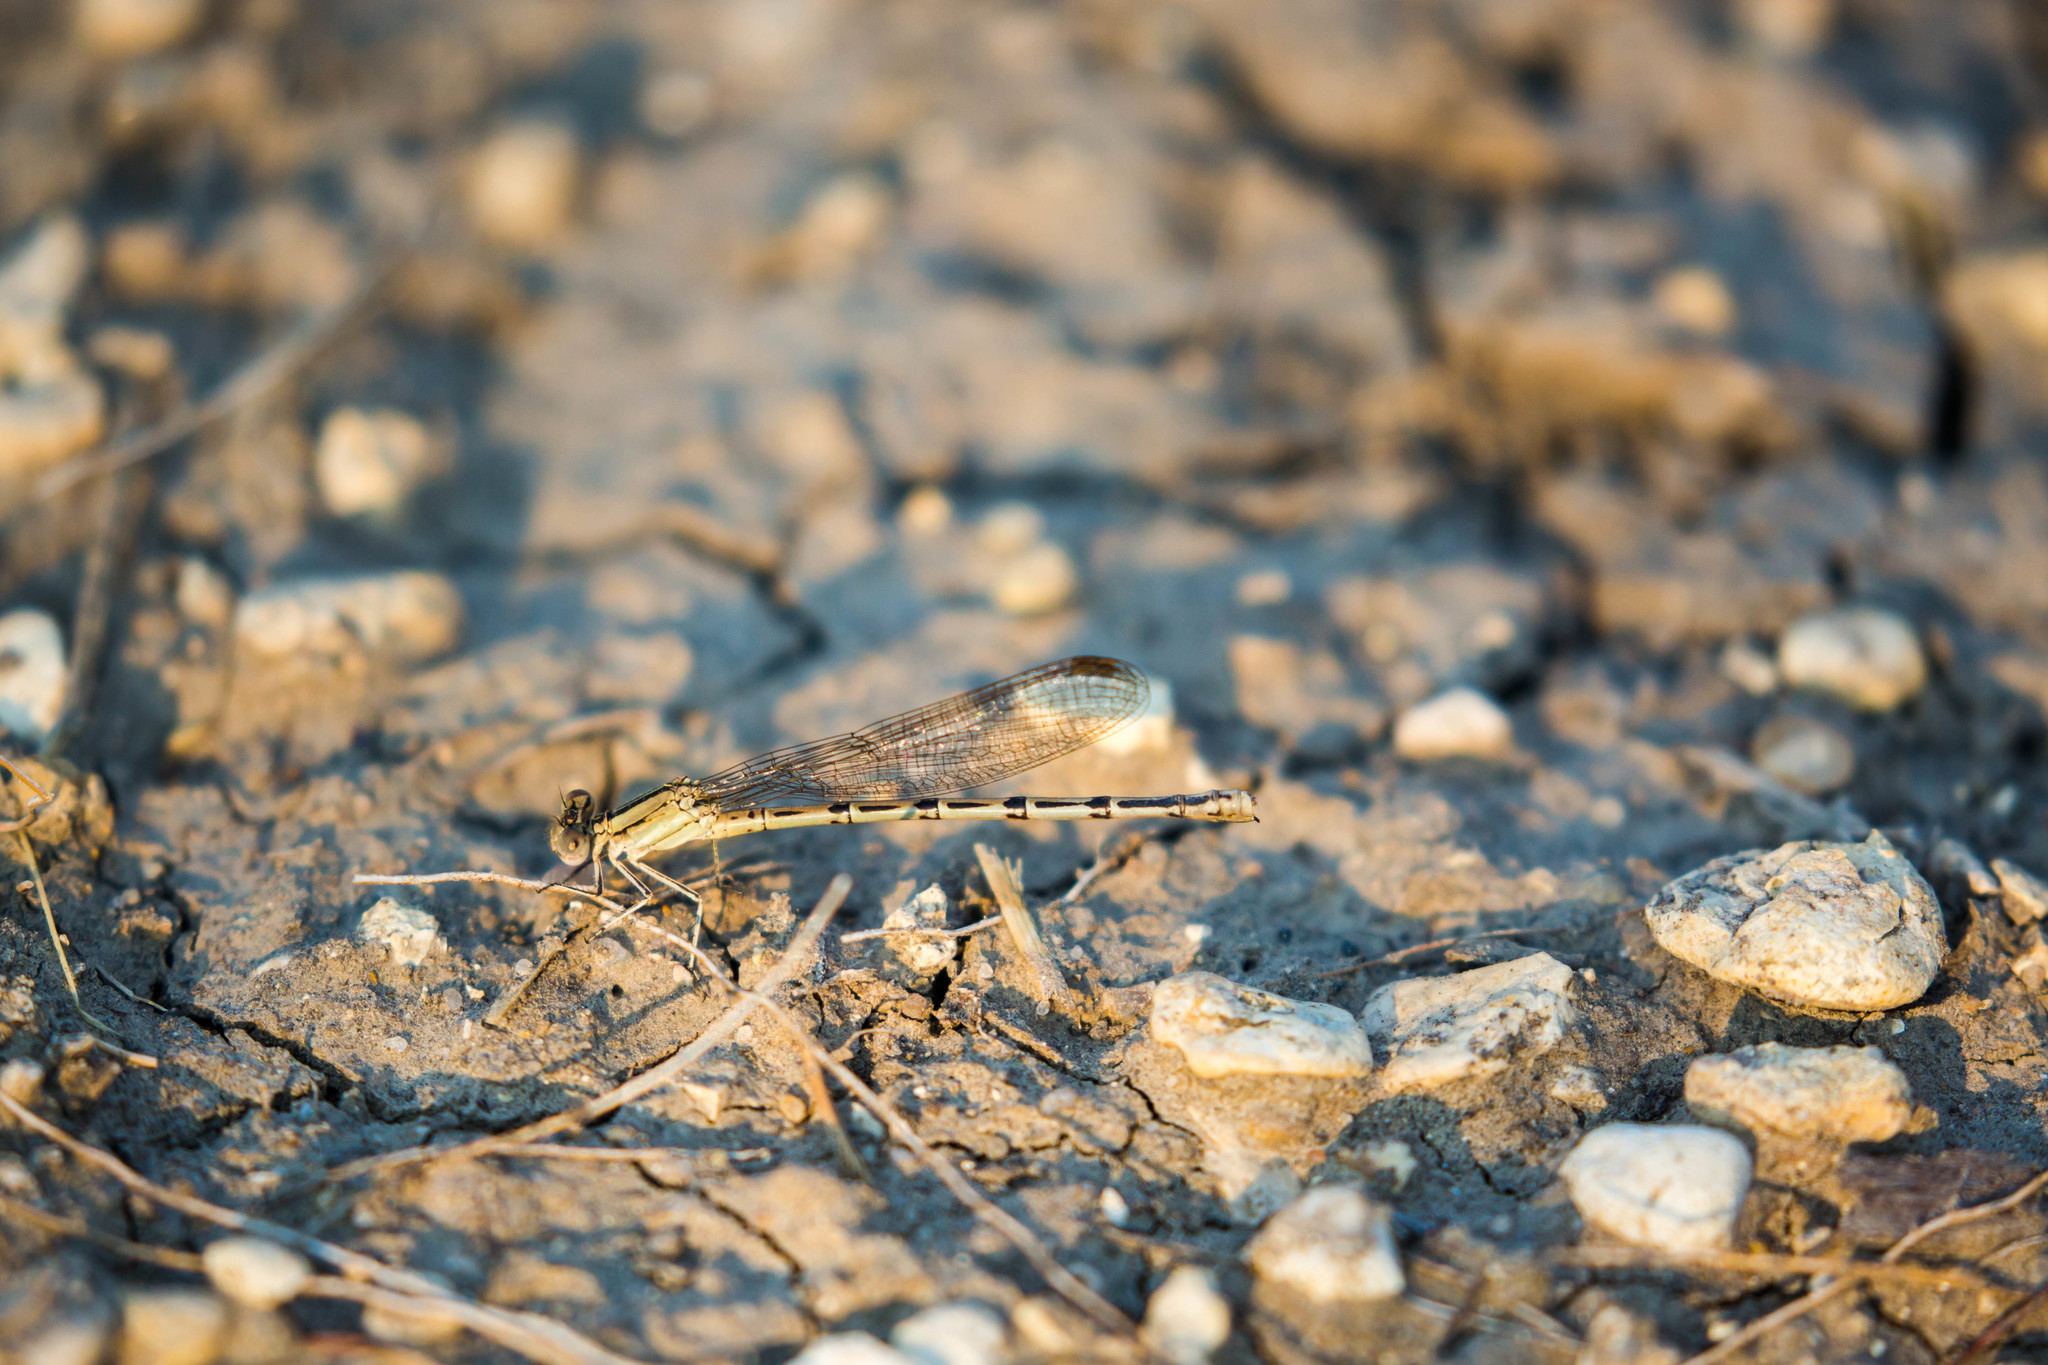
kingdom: Animalia
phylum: Arthropoda
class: Insecta
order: Odonata
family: Coenagrionidae
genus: Argia
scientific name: Argia nahuana
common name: Aztec dancer
